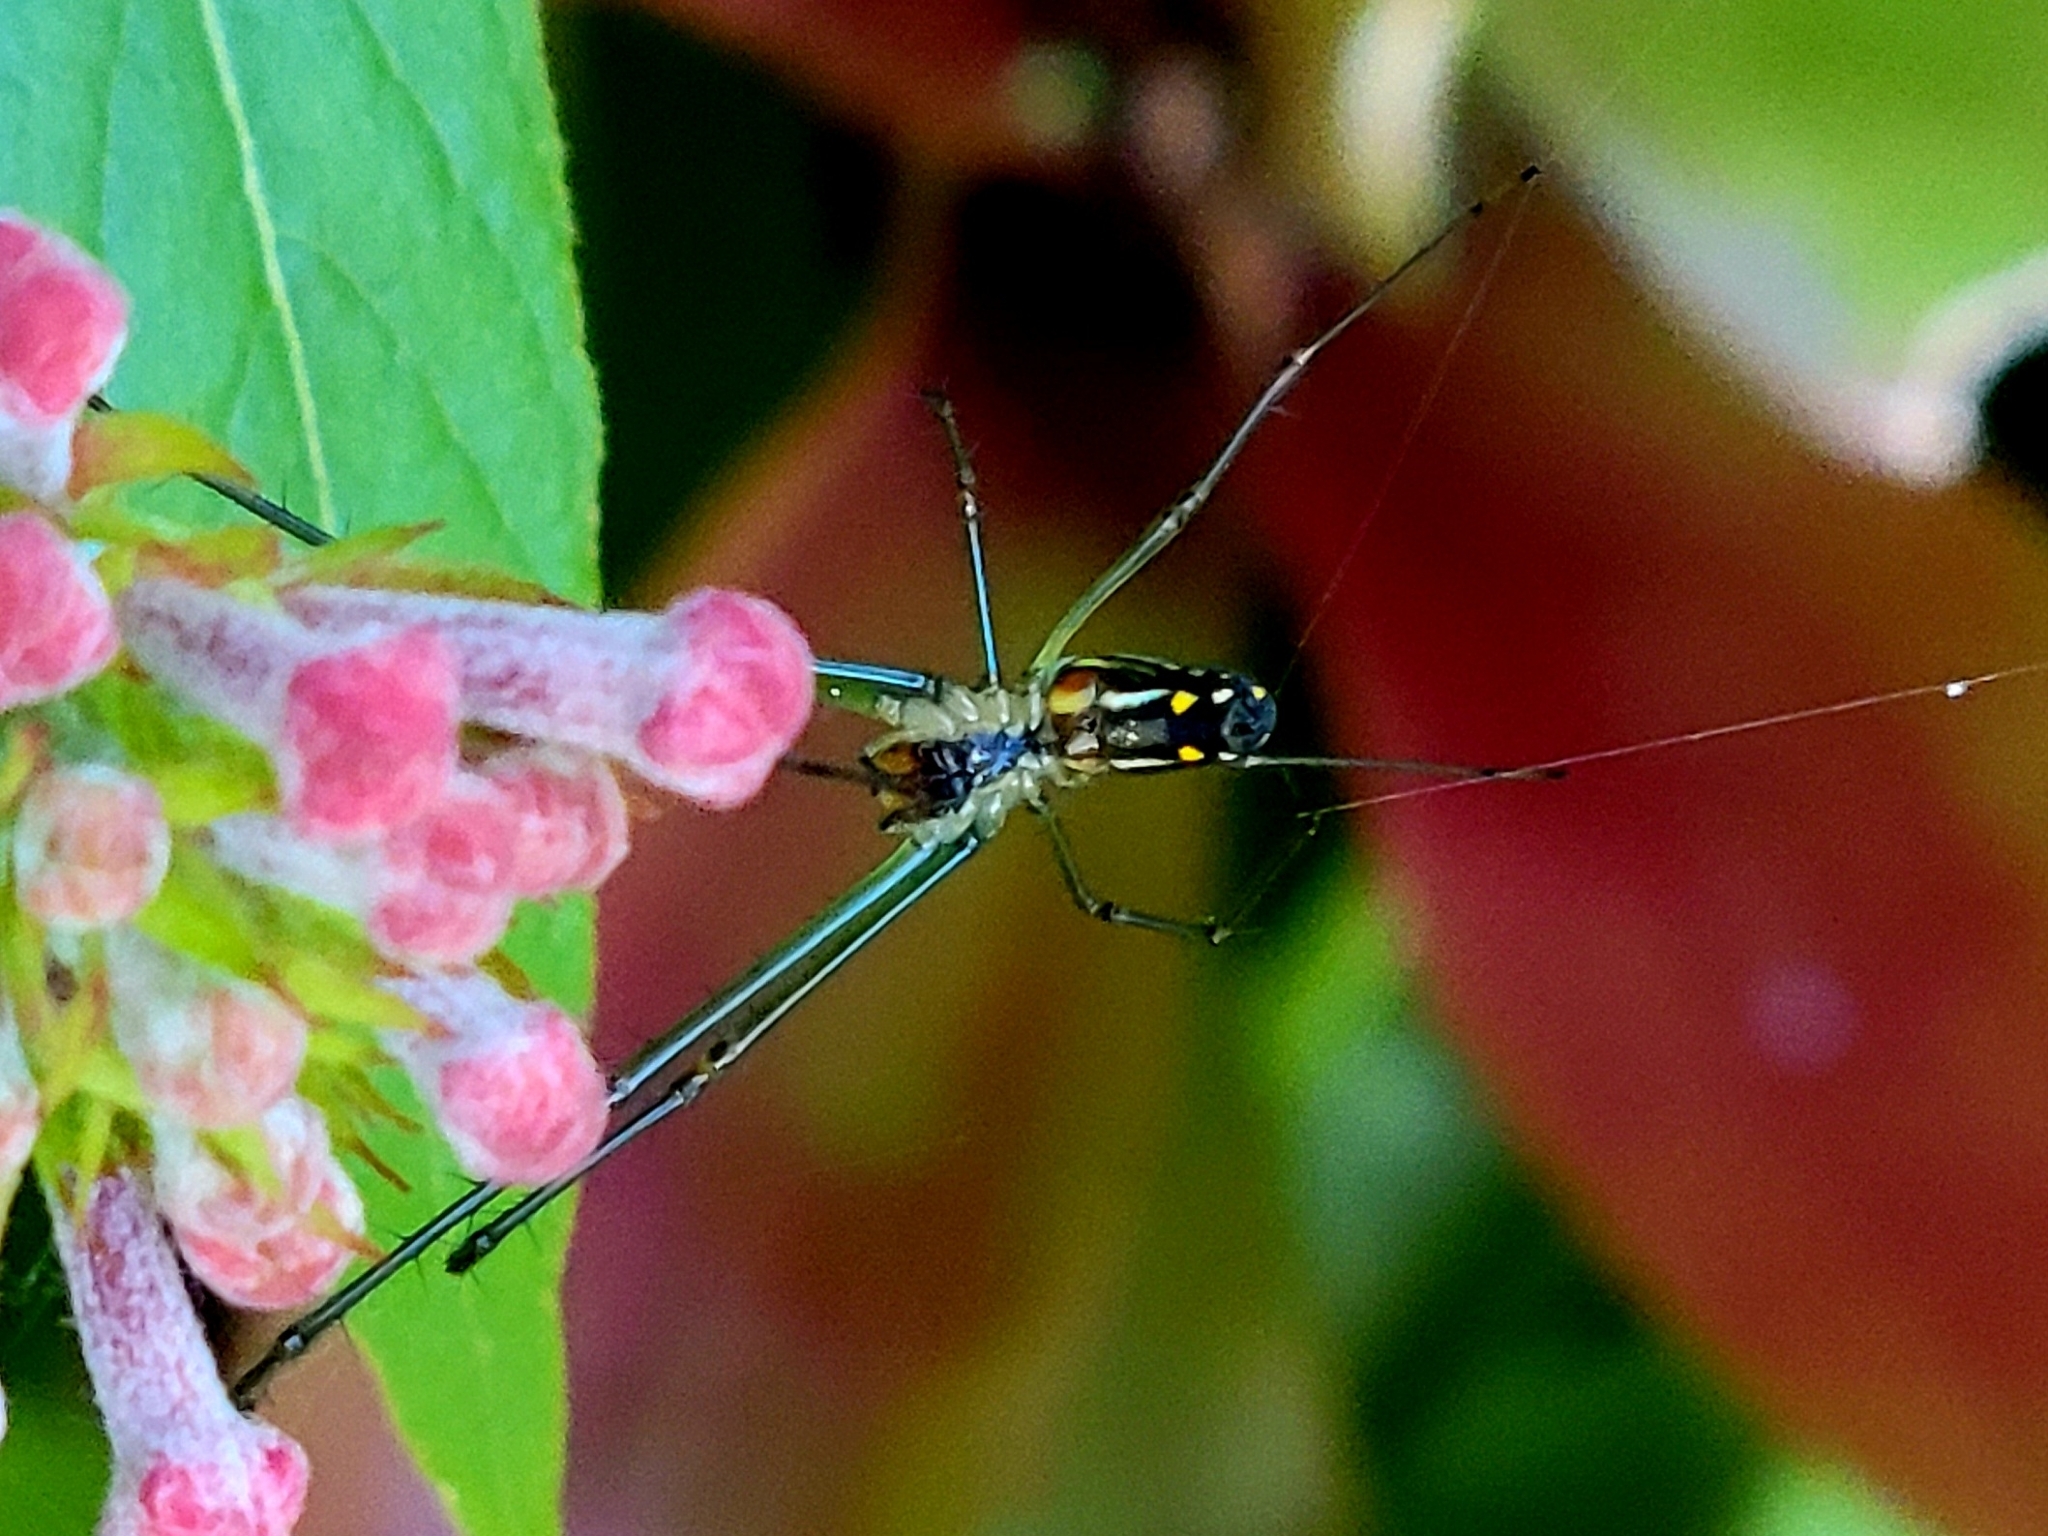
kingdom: Animalia
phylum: Arthropoda
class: Arachnida
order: Araneae
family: Tetragnathidae
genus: Leucauge
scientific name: Leucauge argyra
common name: Longjawed orb weavers
